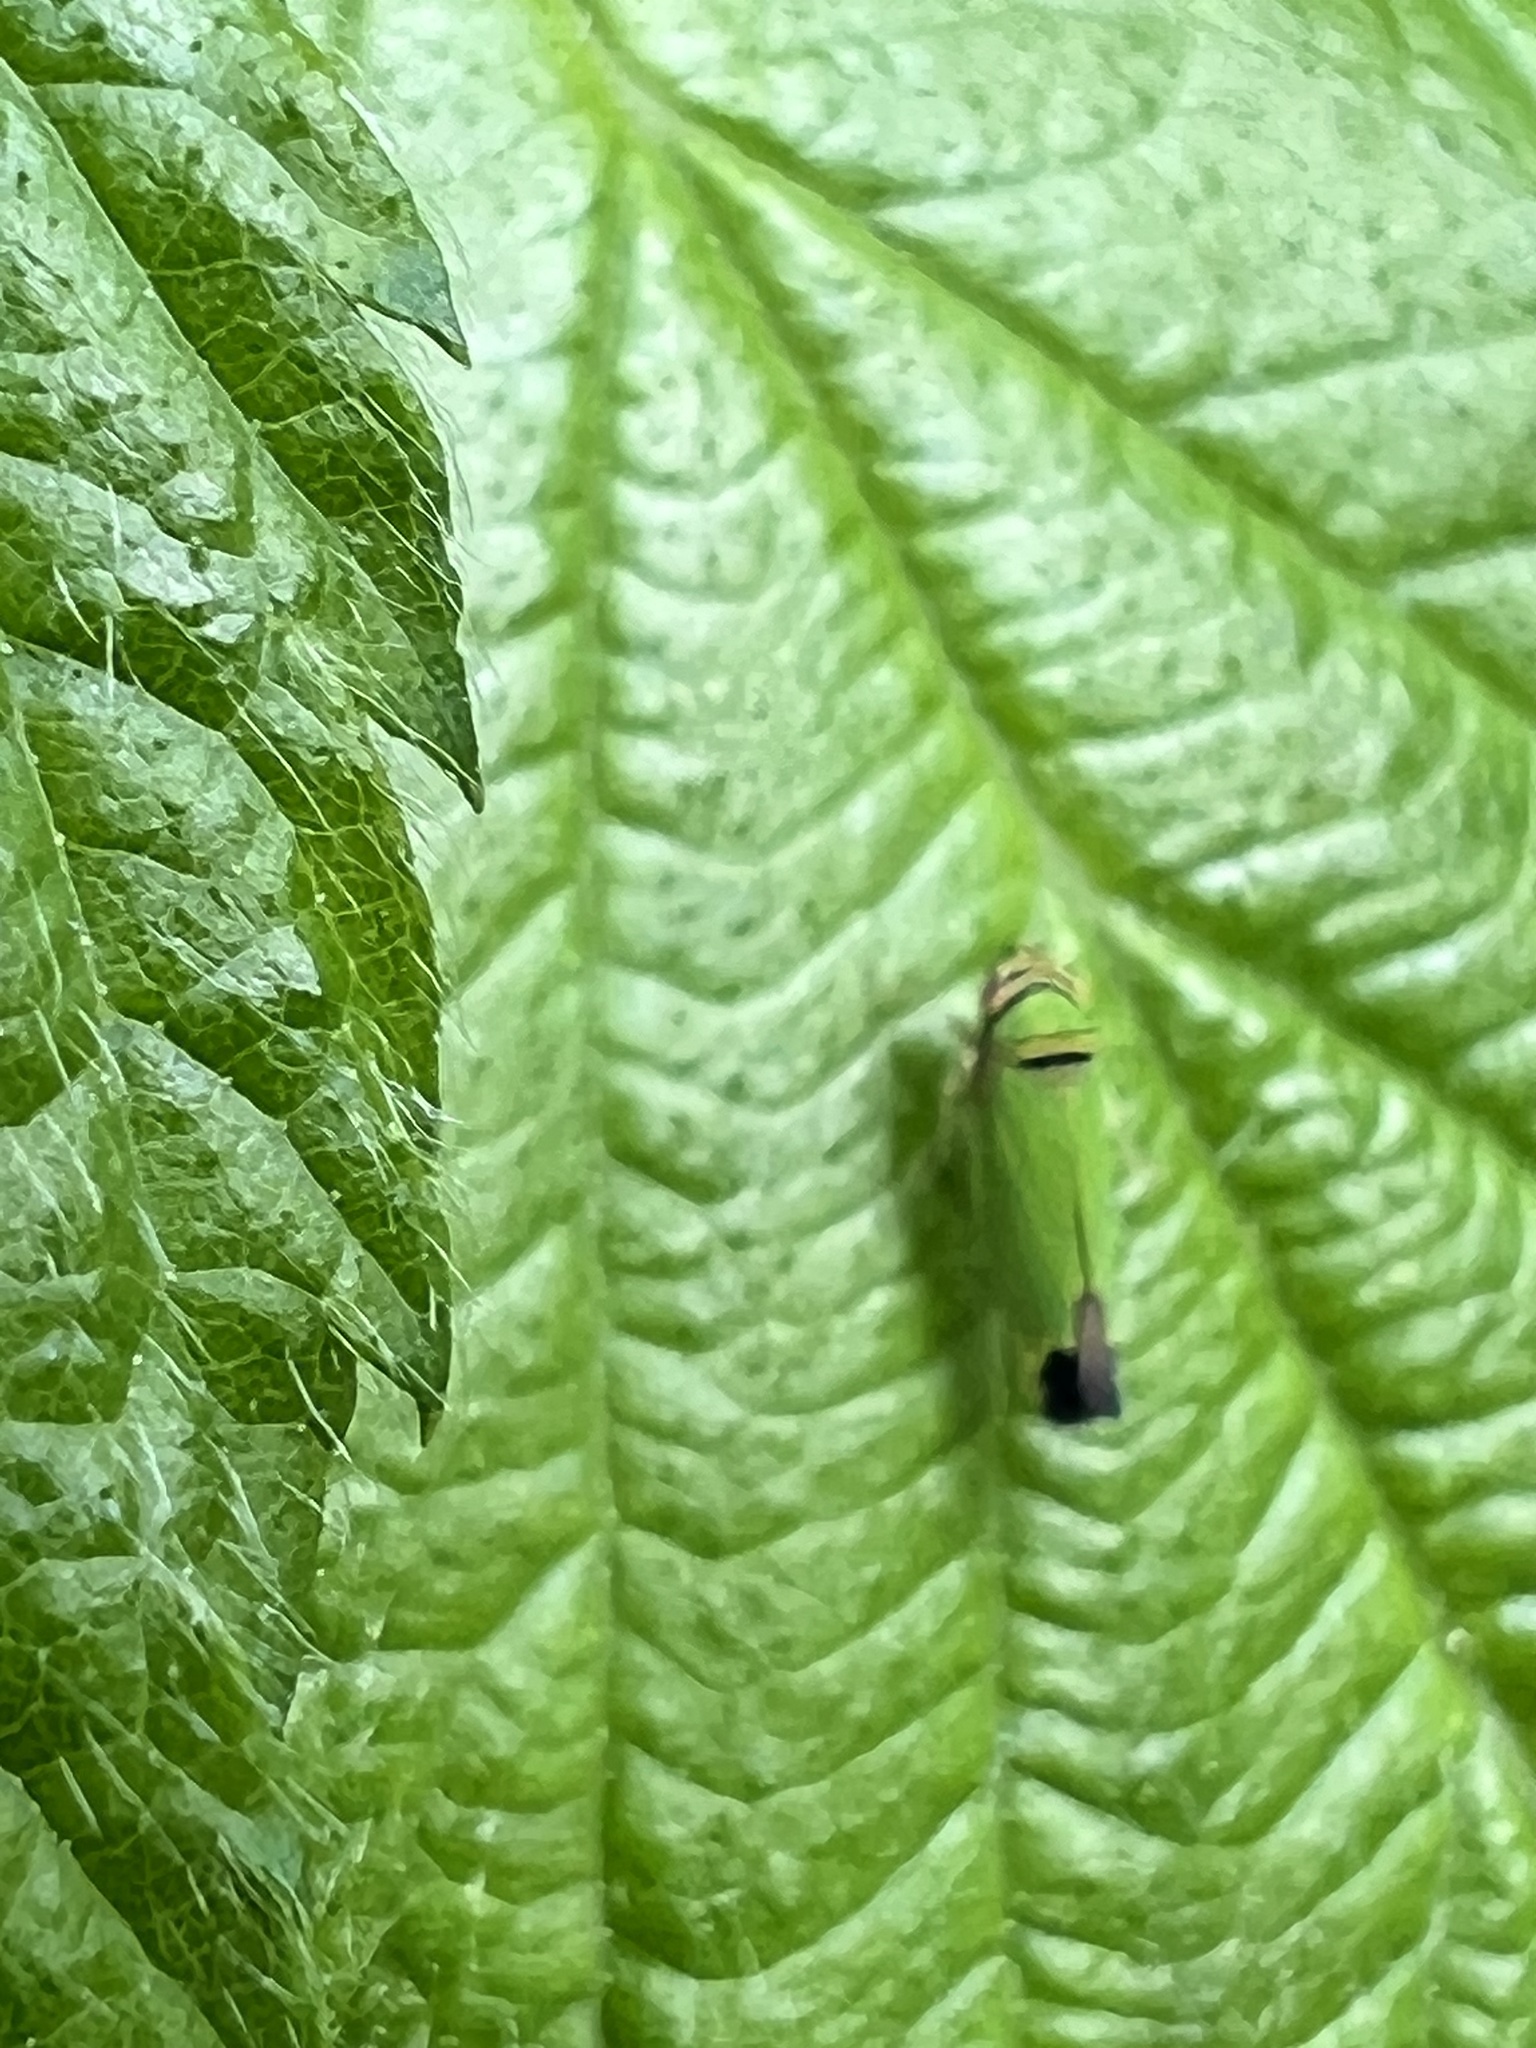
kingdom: Animalia
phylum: Arthropoda
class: Insecta
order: Hemiptera
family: Cicadellidae
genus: Tylozygus
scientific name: Tylozygus geometricus
